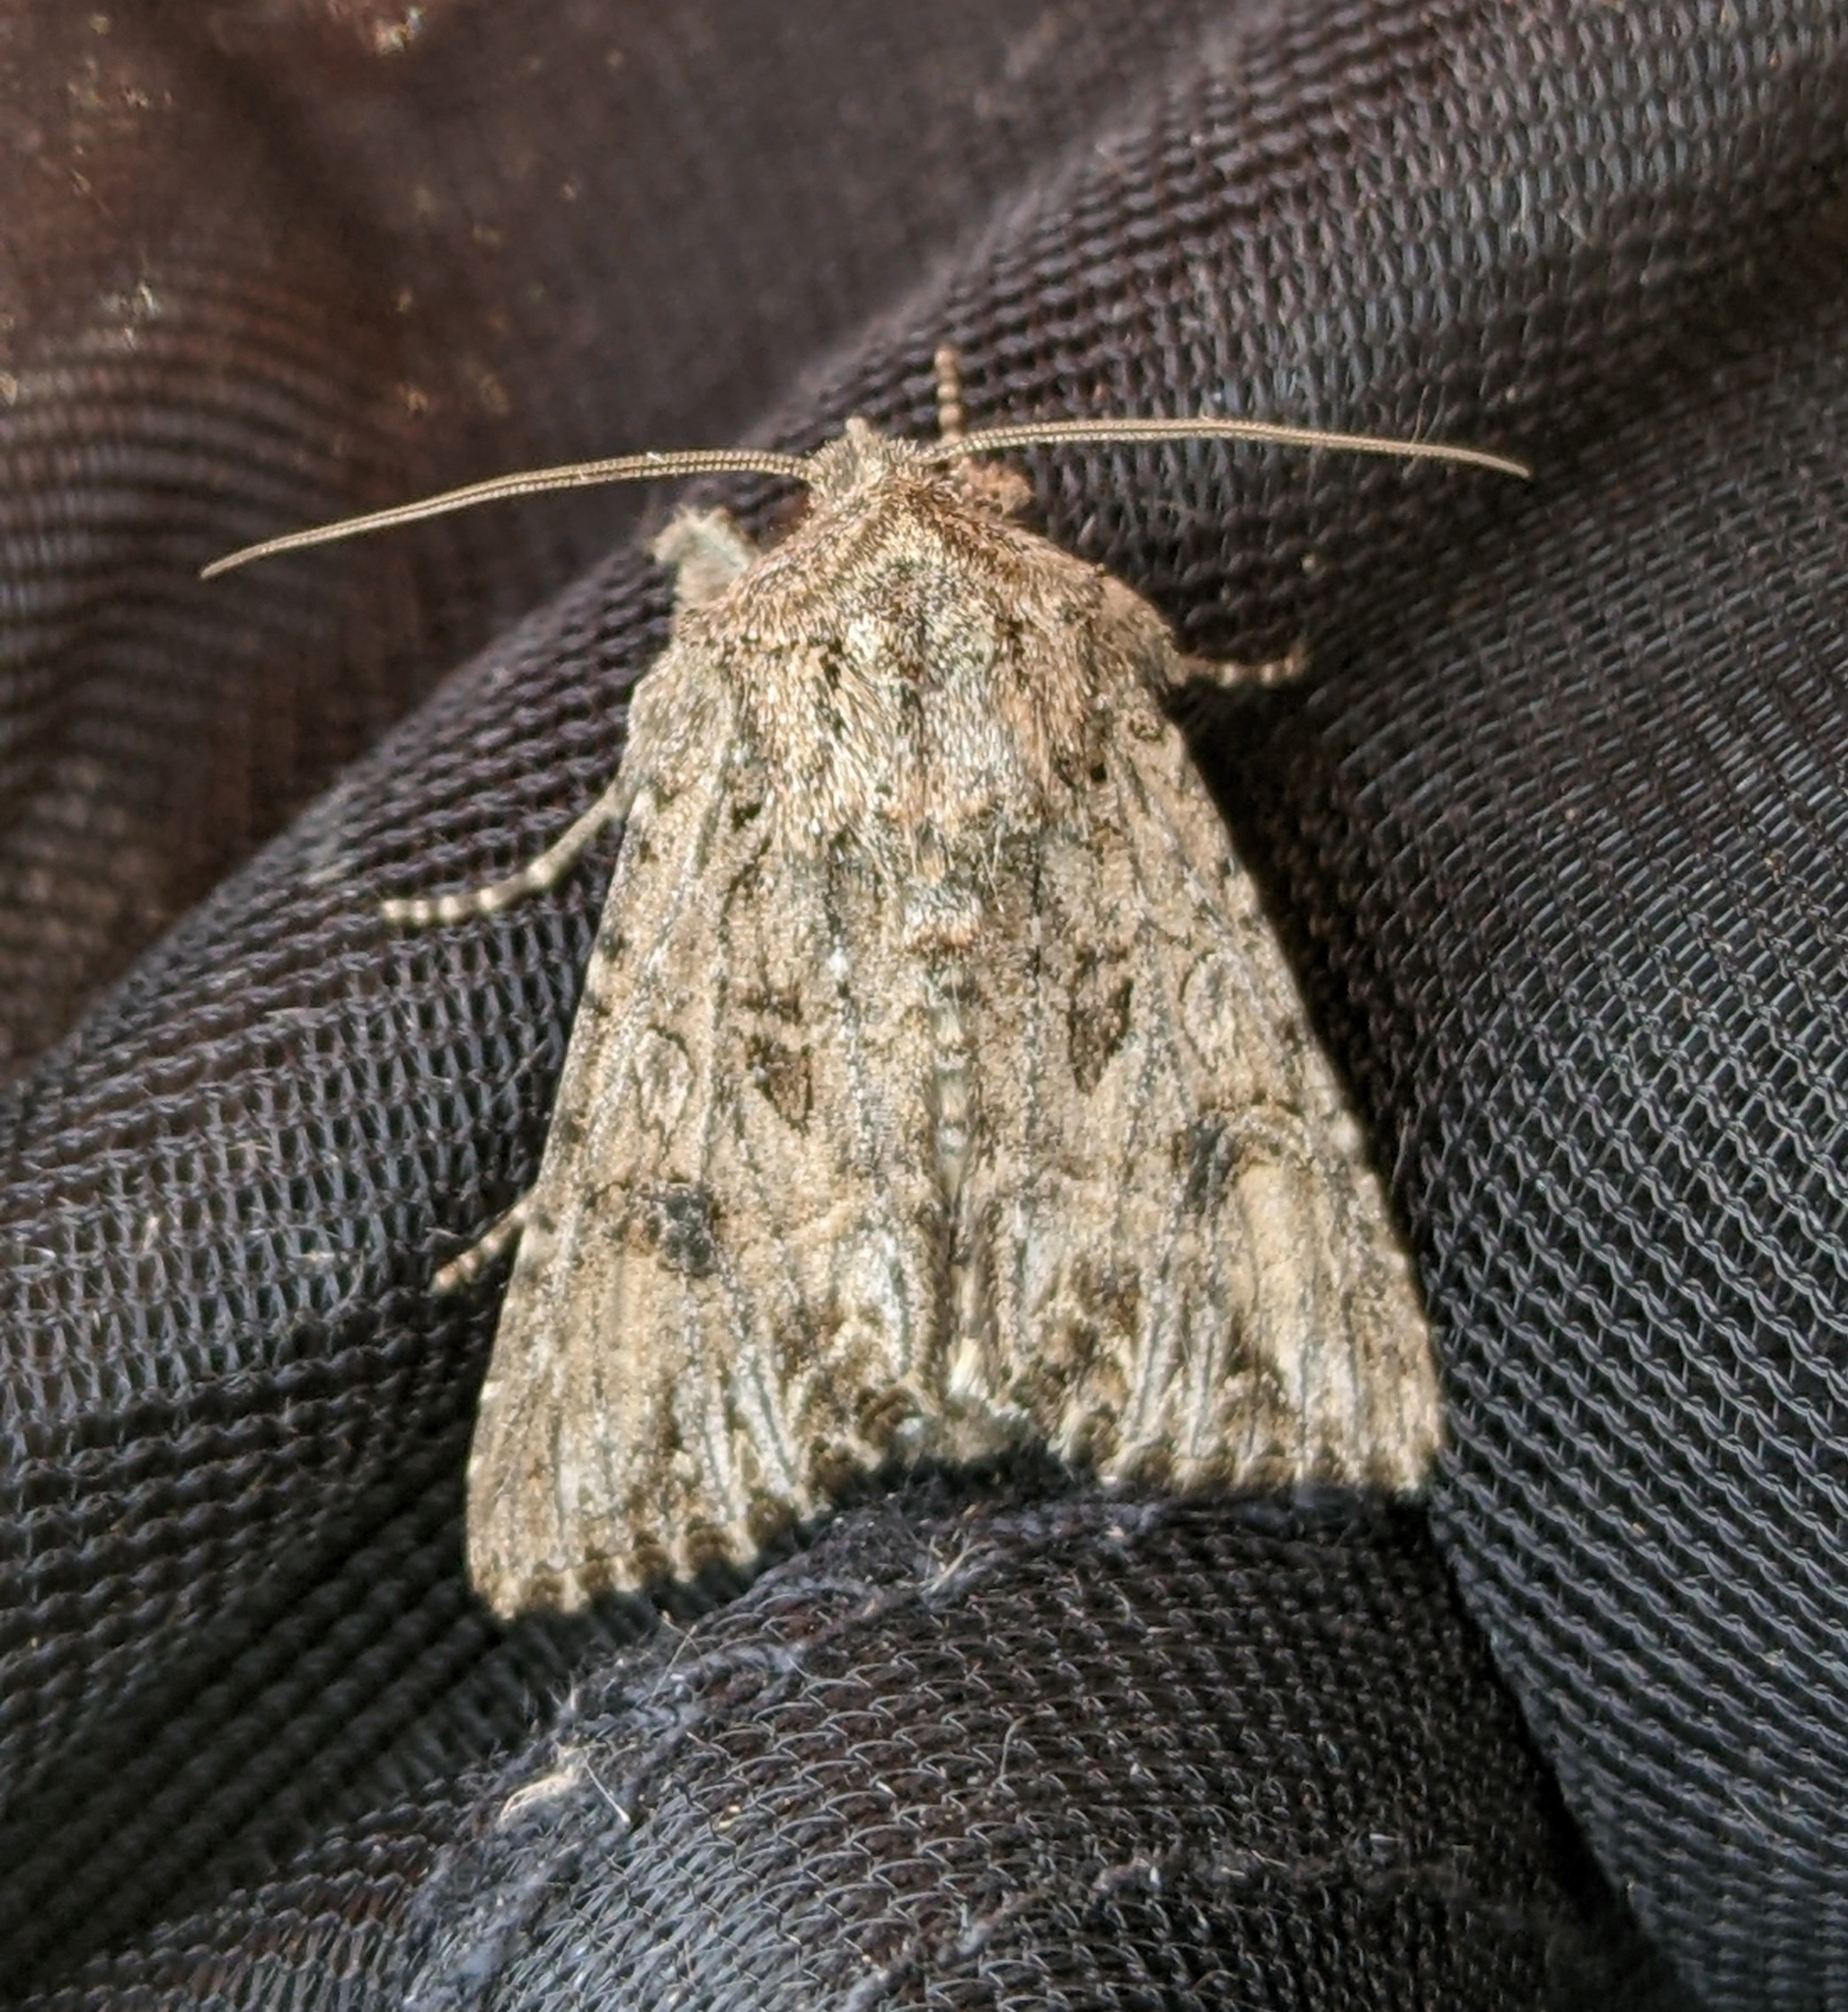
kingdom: Animalia
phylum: Arthropoda
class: Insecta
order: Lepidoptera
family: Noctuidae
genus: Anarta
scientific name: Anarta trifolii
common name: Clover cutworm moth
